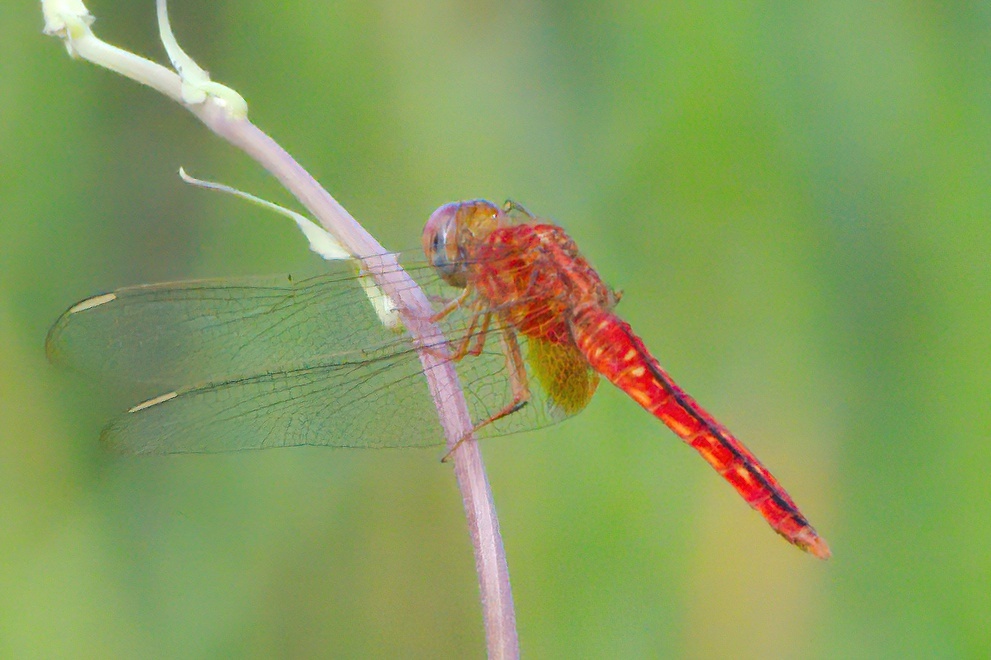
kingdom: Animalia
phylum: Arthropoda
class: Insecta
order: Odonata
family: Libellulidae
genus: Crocothemis
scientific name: Crocothemis servilia
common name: Scarlet skimmer
